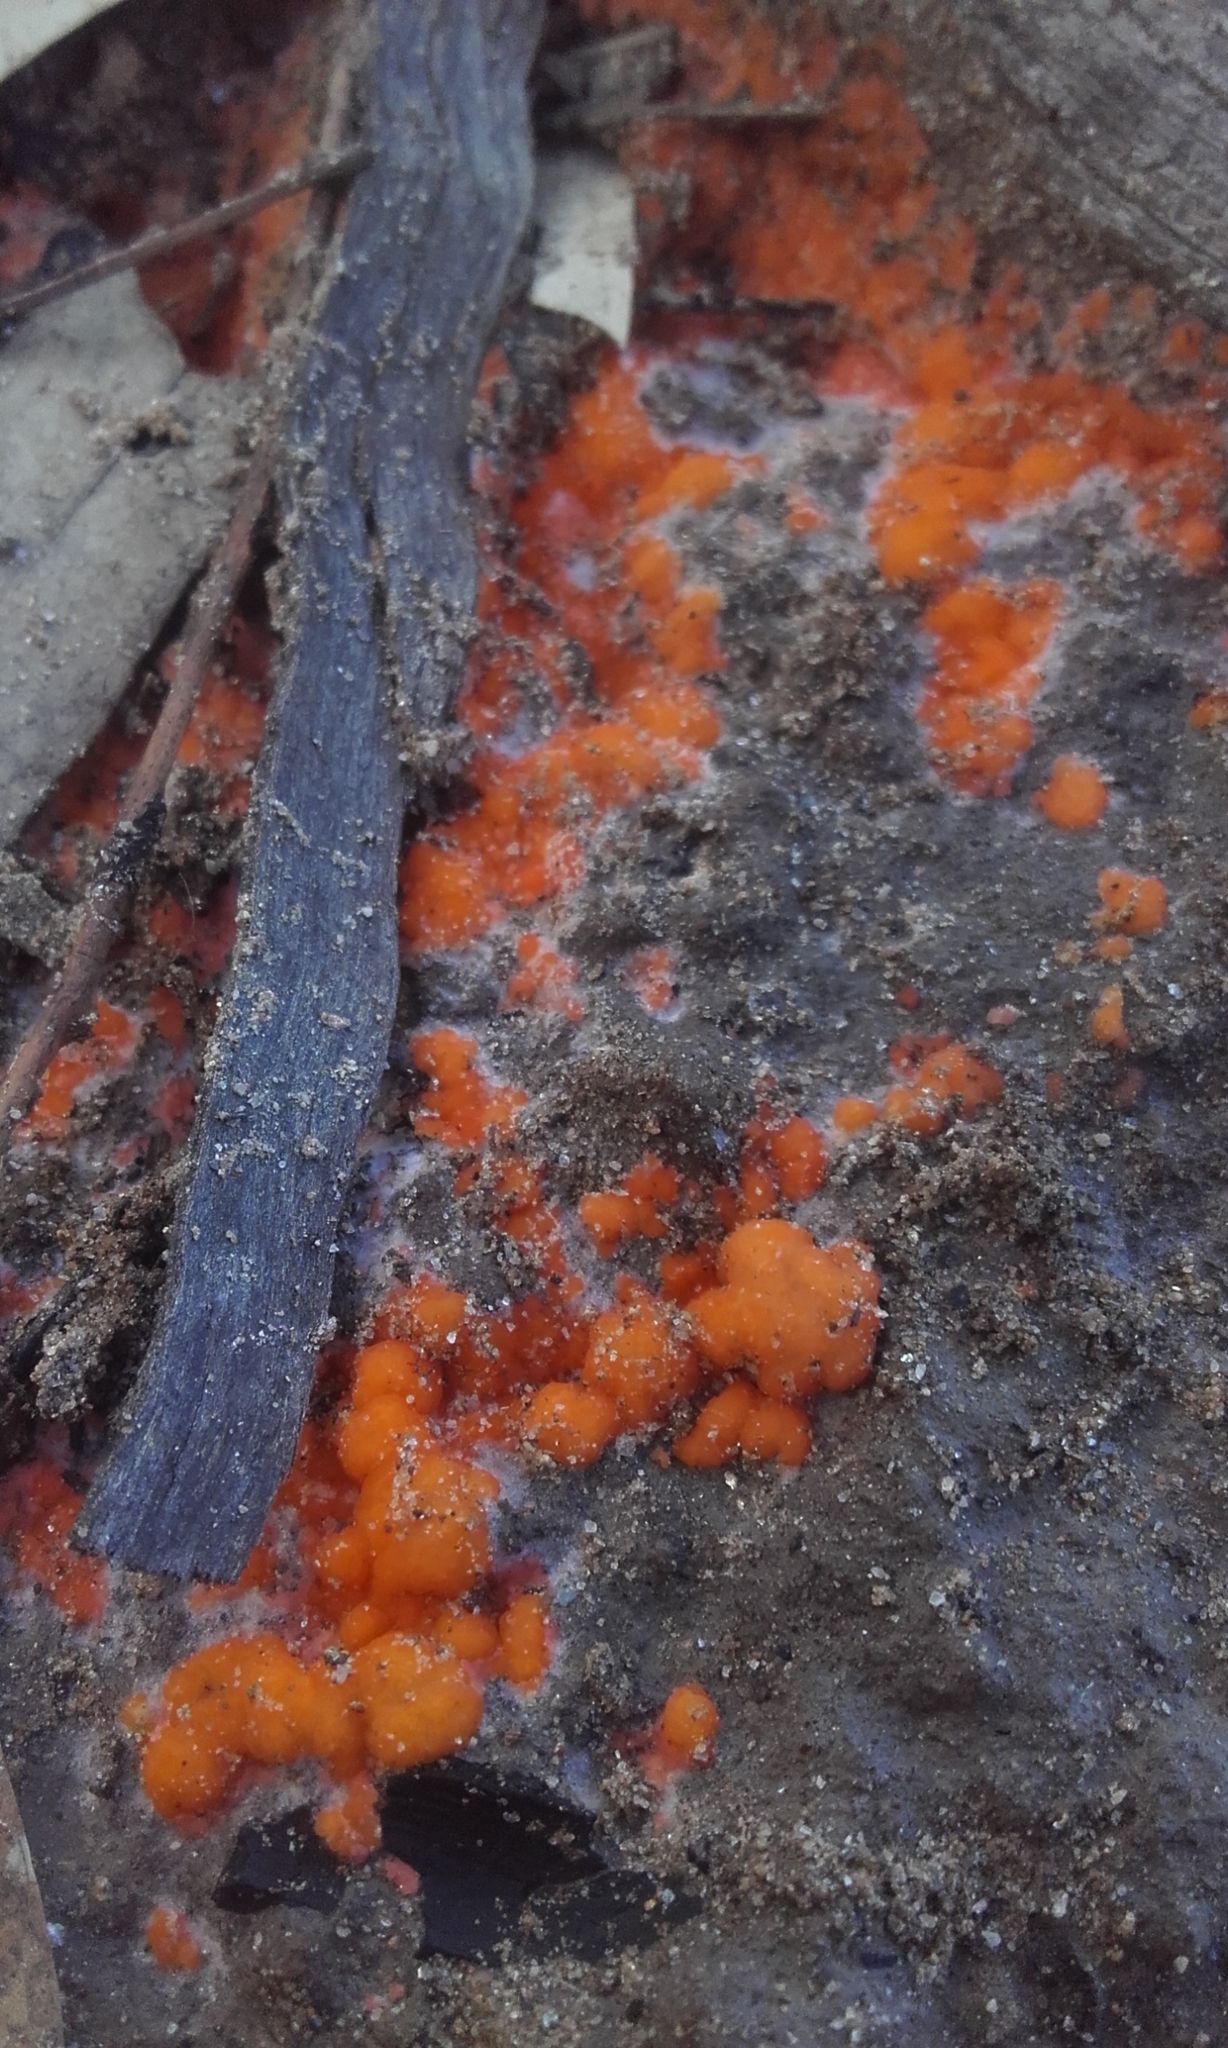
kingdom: Fungi
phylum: Ascomycota
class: Pezizomycetes
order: Pezizales
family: Pyronemataceae
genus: Pyronema
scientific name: Pyronema omphalodes
